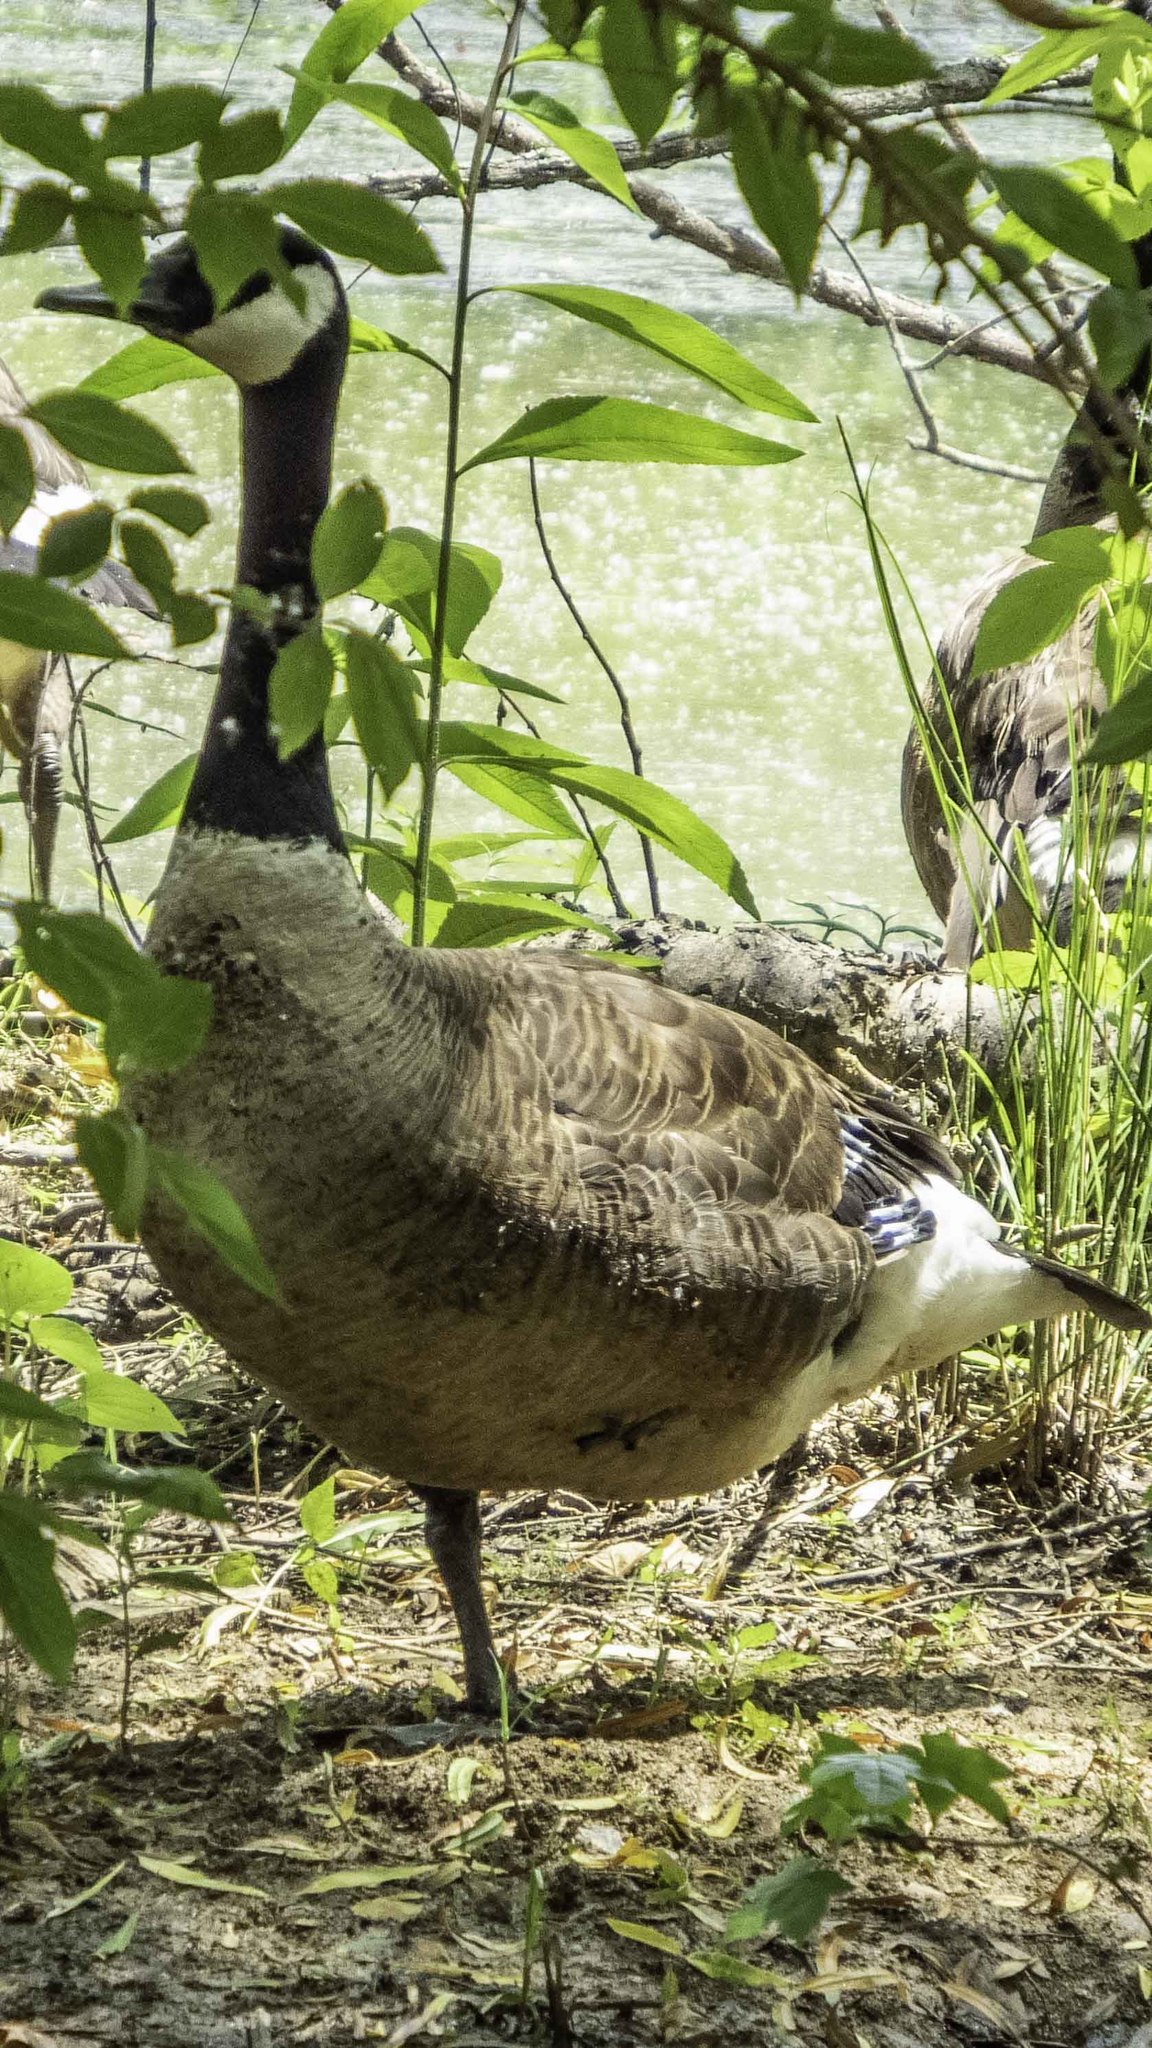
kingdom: Animalia
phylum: Chordata
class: Aves
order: Anseriformes
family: Anatidae
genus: Branta
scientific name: Branta canadensis
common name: Canada goose
